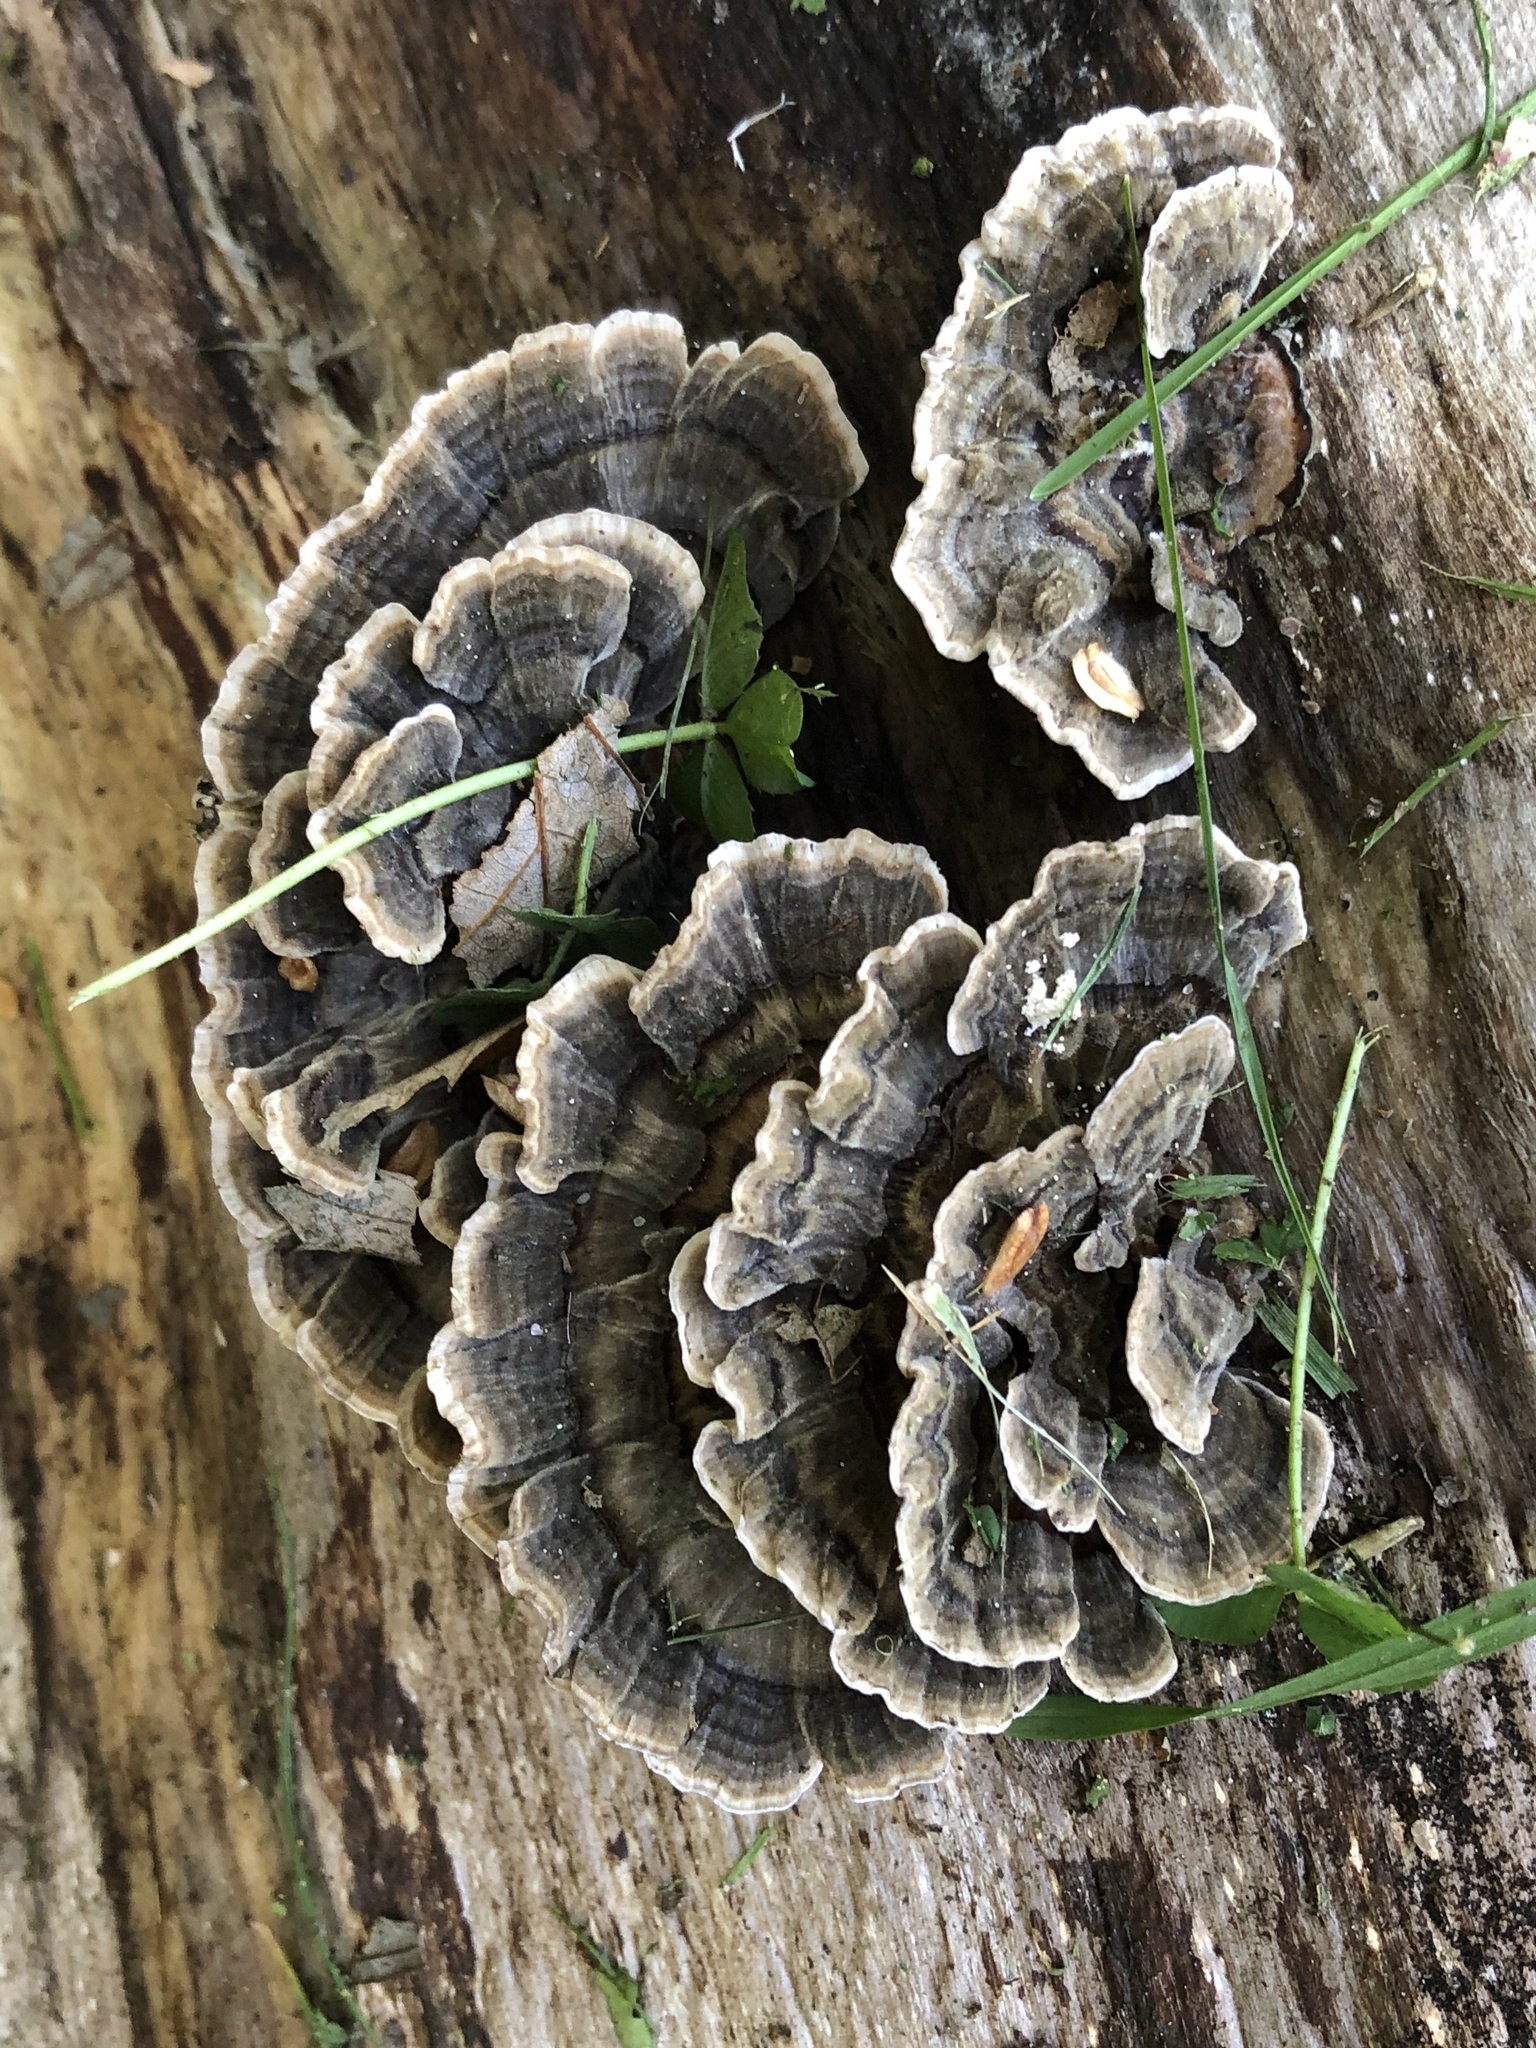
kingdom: Fungi
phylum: Basidiomycota
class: Agaricomycetes
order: Polyporales
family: Polyporaceae
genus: Trametes
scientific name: Trametes versicolor
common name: Turkeytail
